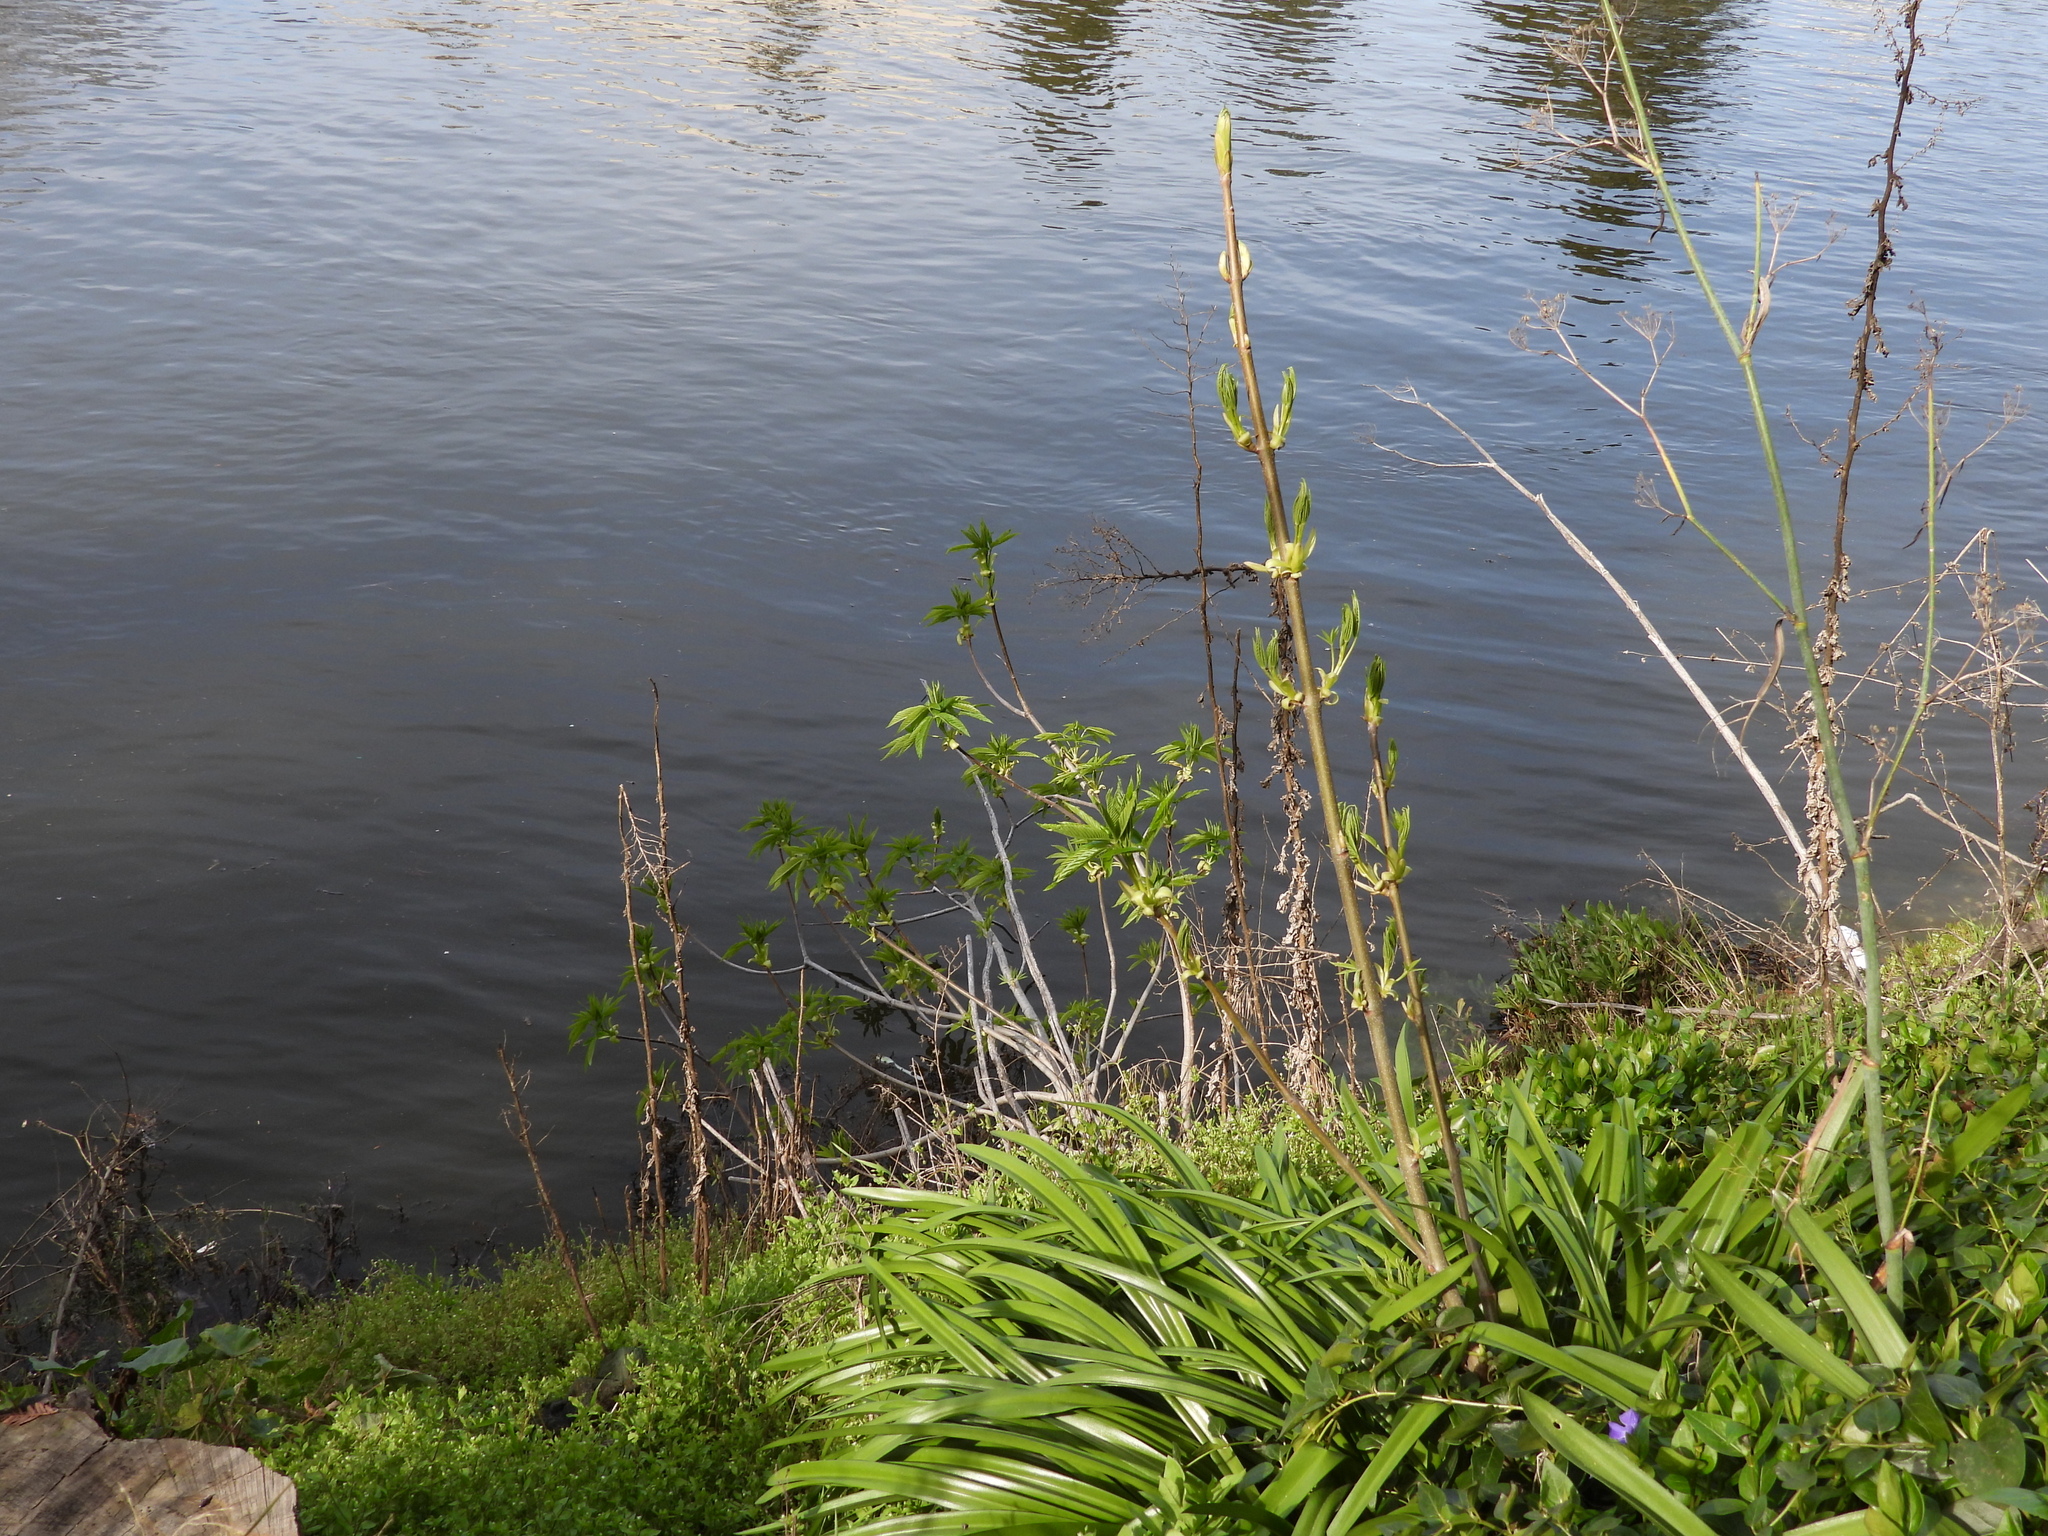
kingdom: Plantae
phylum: Tracheophyta
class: Magnoliopsida
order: Sapindales
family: Sapindaceae
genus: Aesculus
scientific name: Aesculus californica
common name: California buckeye
